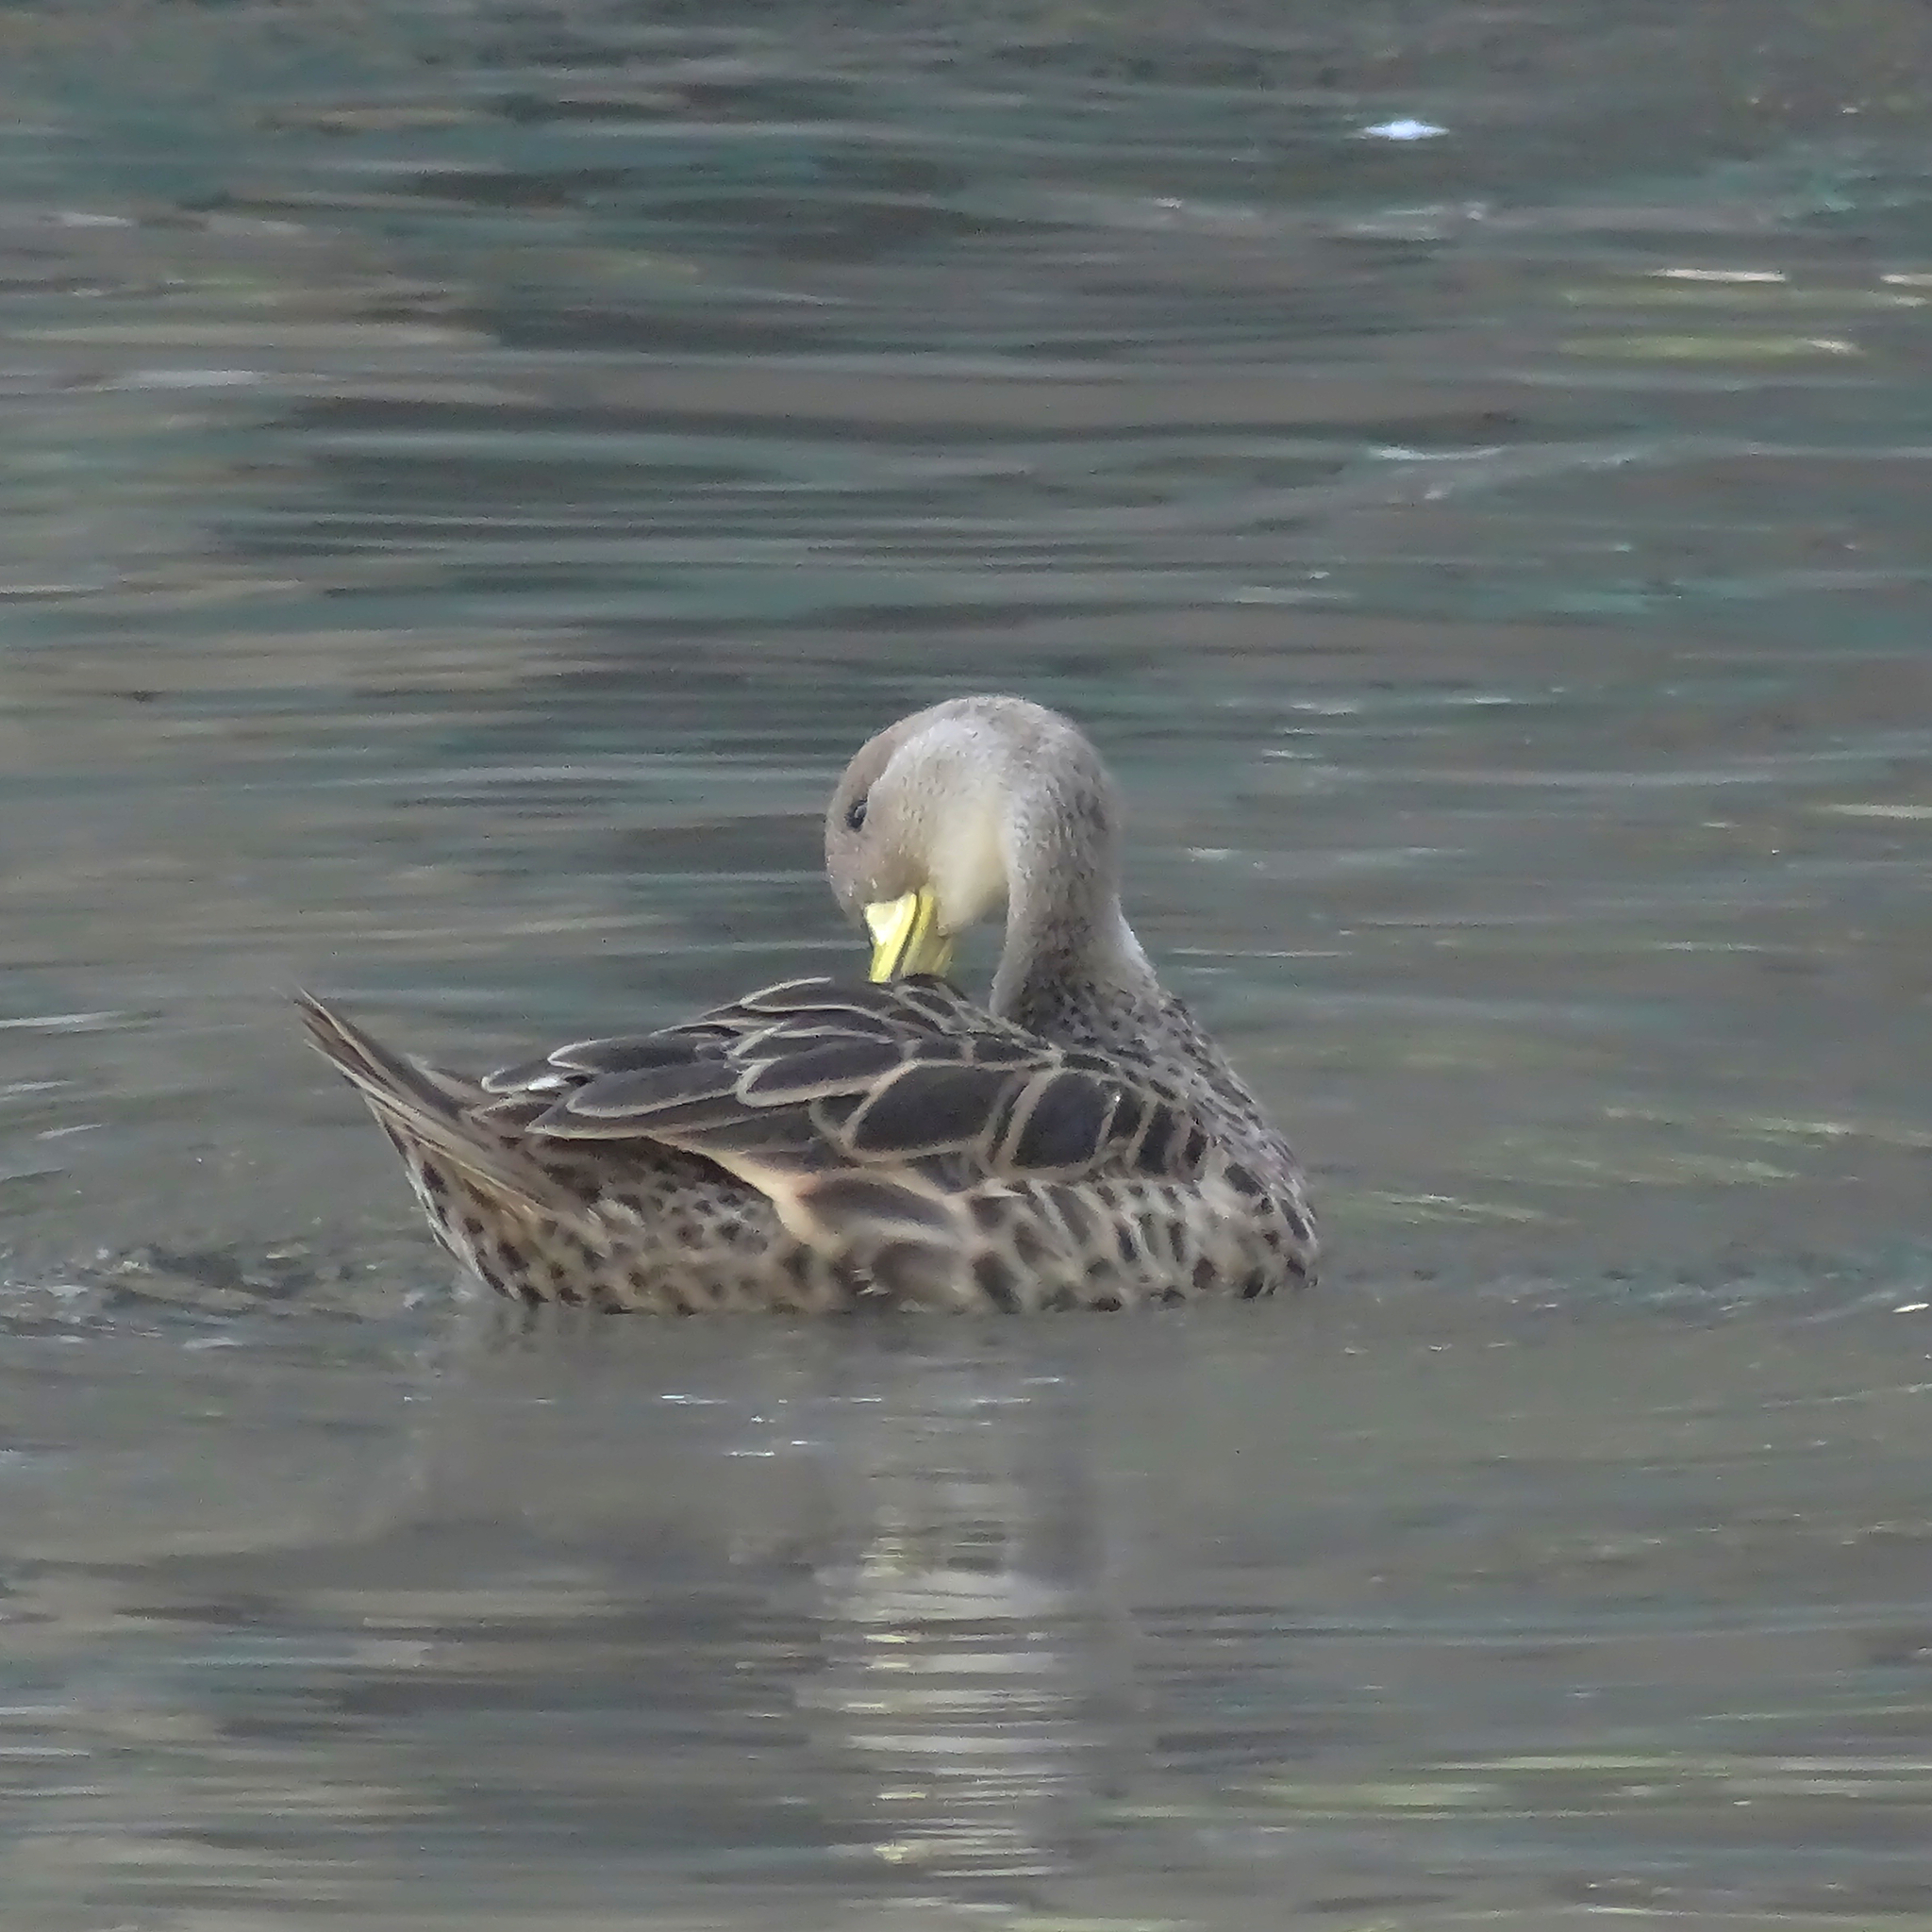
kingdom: Animalia
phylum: Chordata
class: Aves
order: Anseriformes
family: Anatidae
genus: Anas
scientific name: Anas georgica
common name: Yellow-billed pintail
